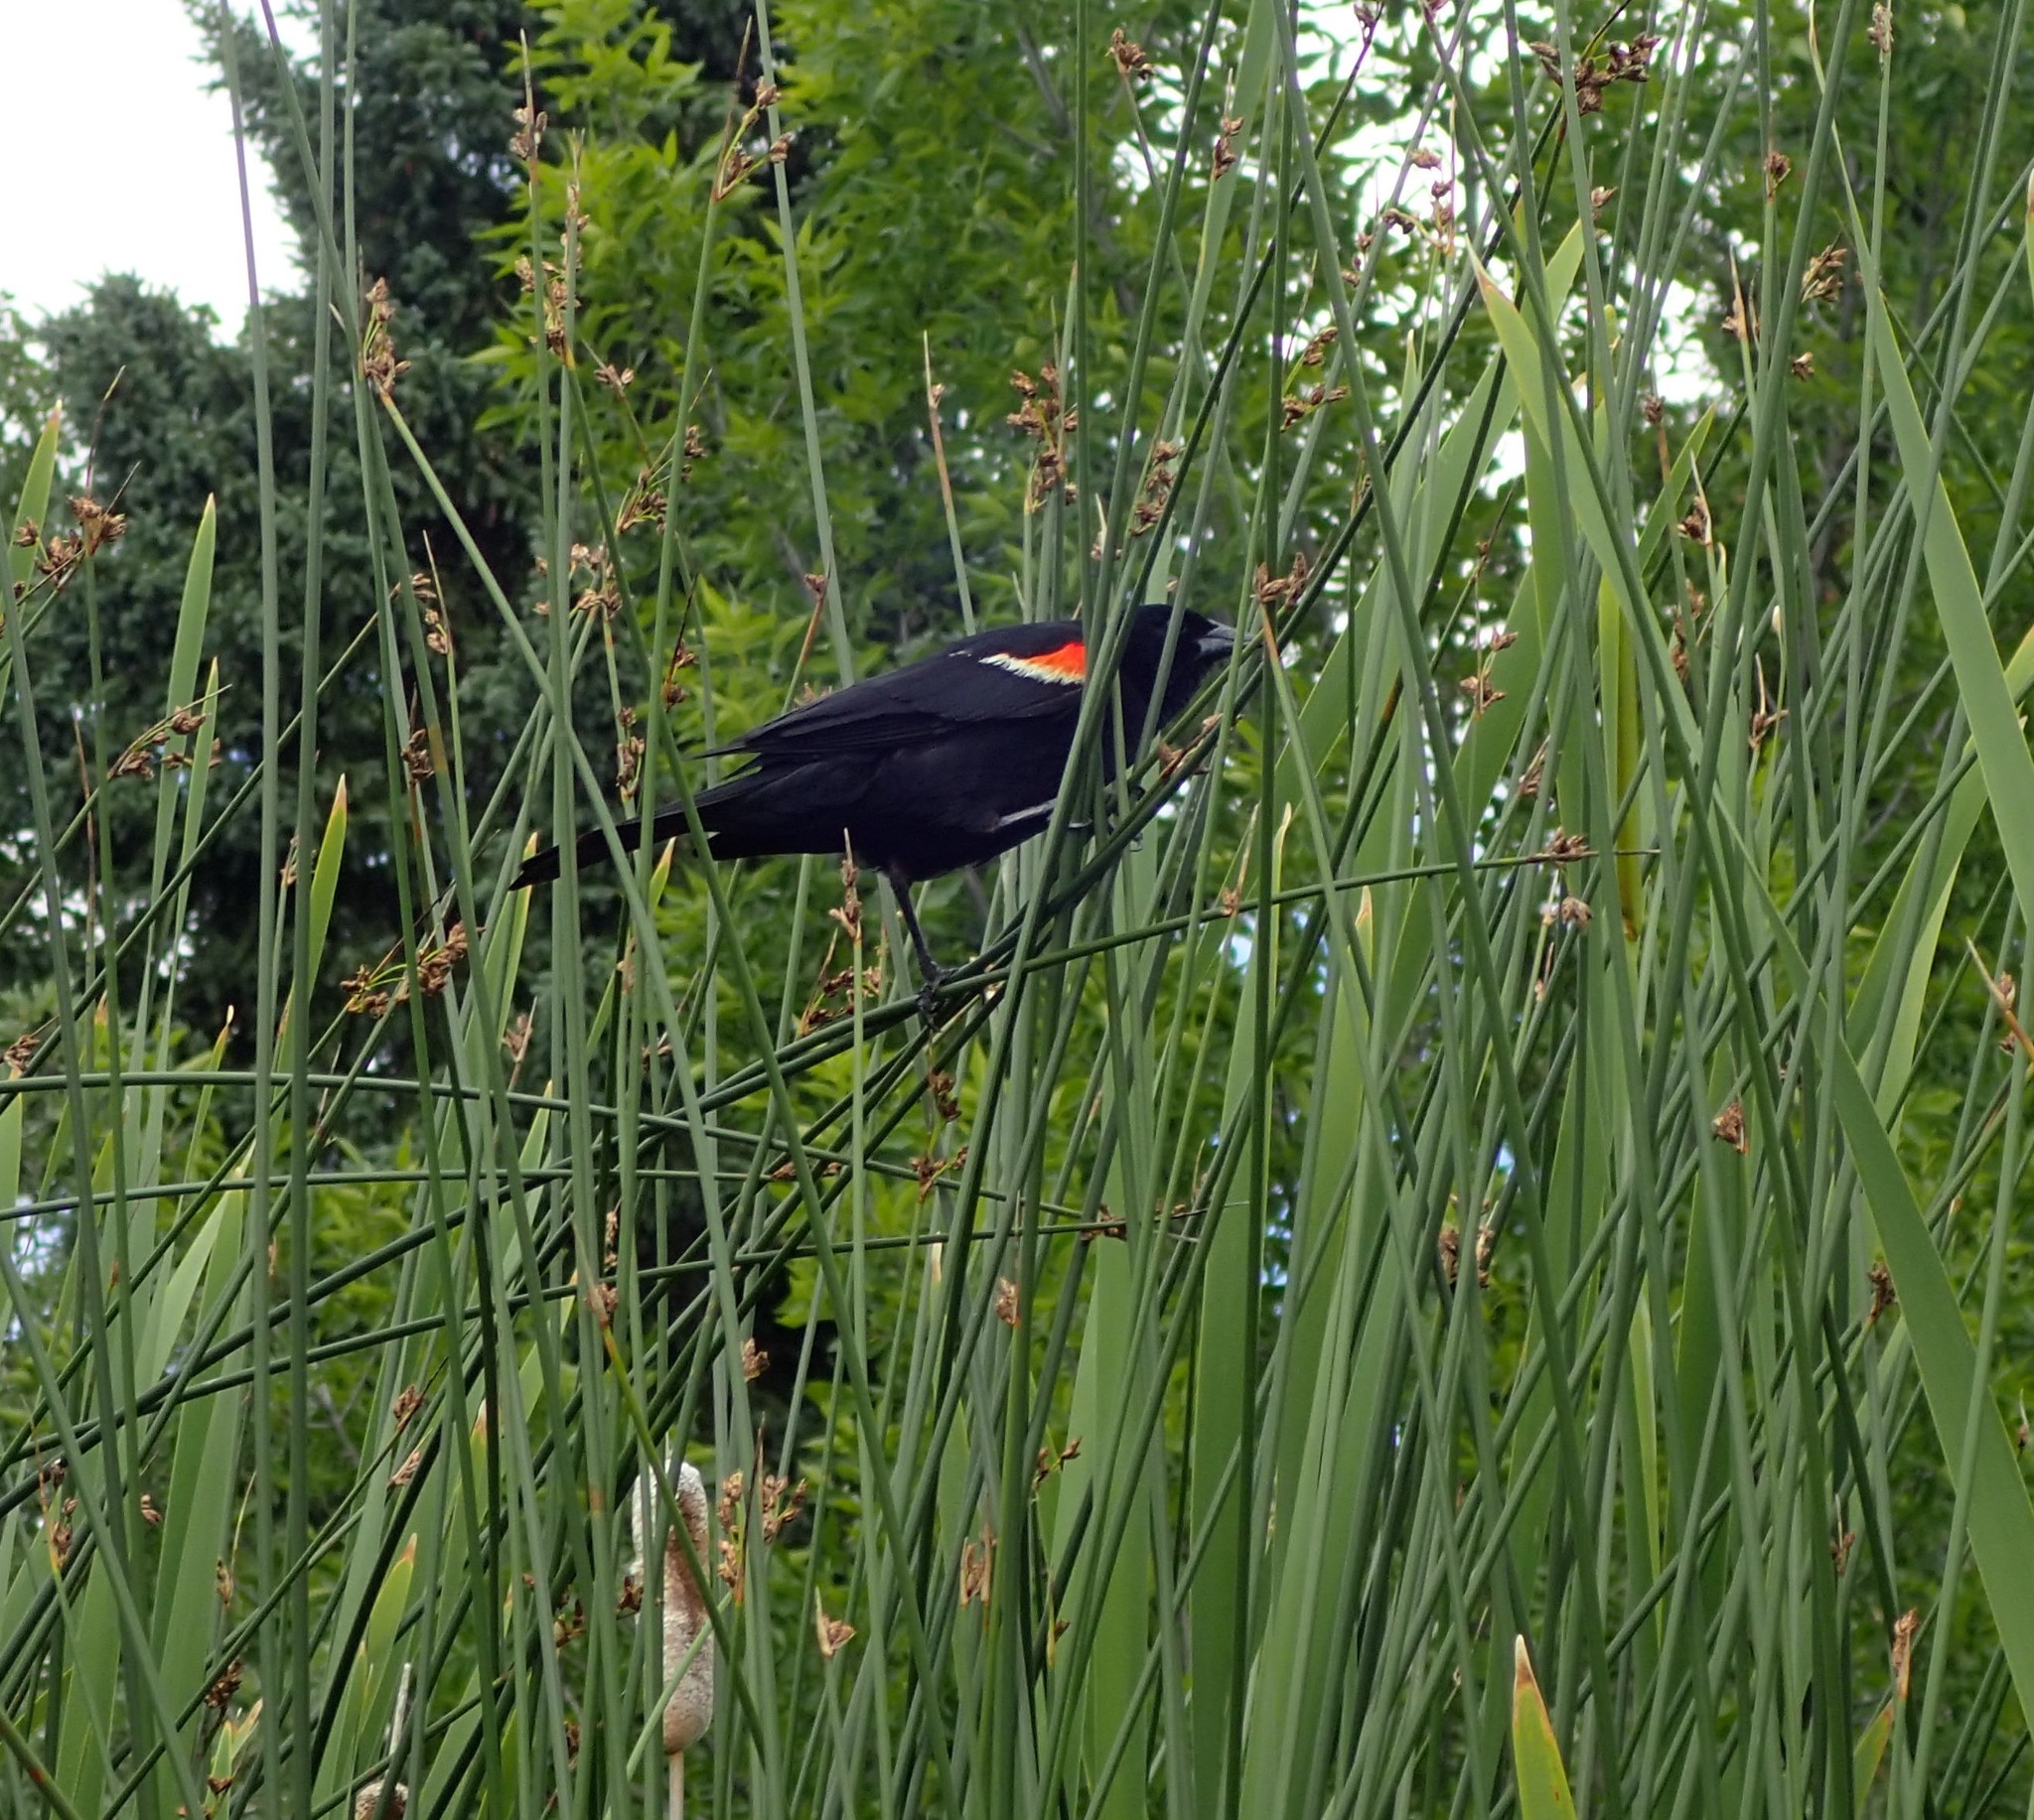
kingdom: Animalia
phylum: Chordata
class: Aves
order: Passeriformes
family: Icteridae
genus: Agelaius
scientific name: Agelaius phoeniceus
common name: Red-winged blackbird
